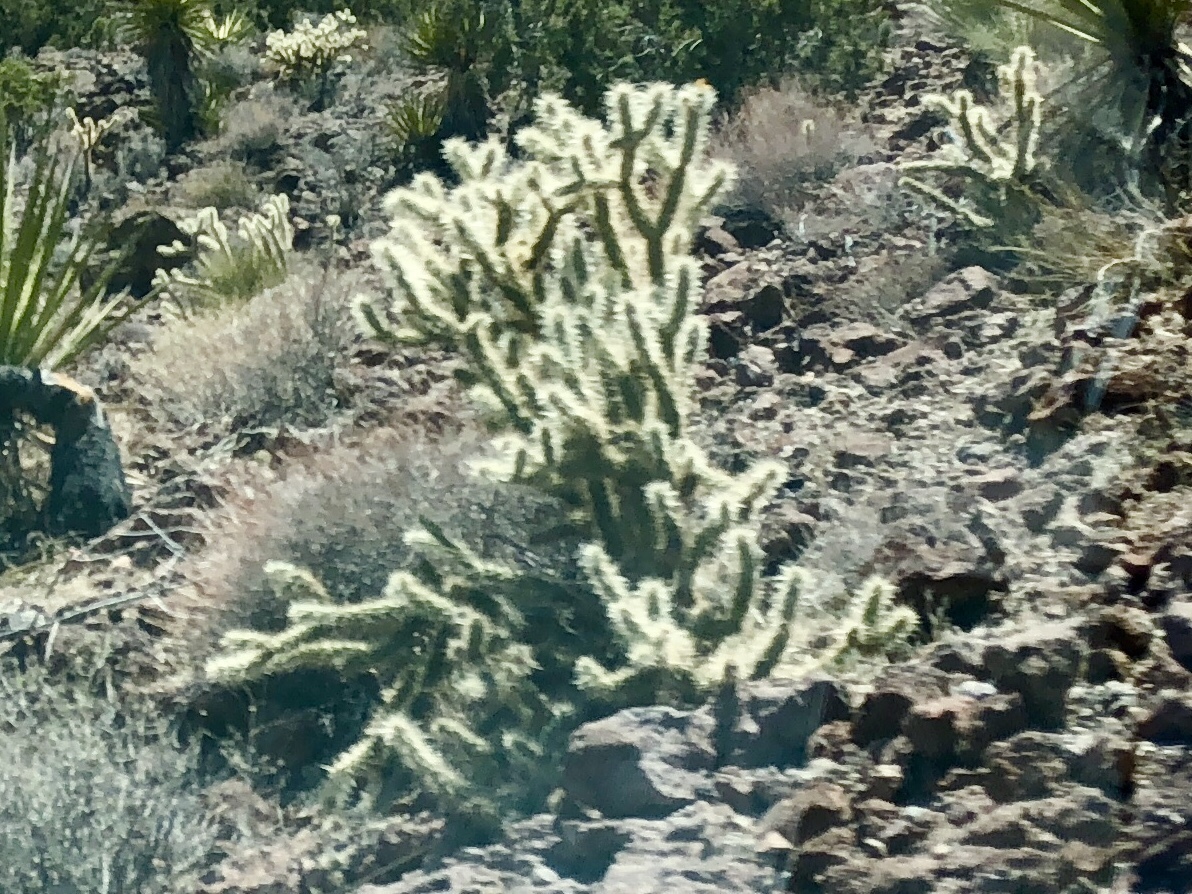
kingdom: Plantae
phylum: Tracheophyta
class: Magnoliopsida
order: Caryophyllales
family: Cactaceae
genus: Cylindropuntia
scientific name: Cylindropuntia acanthocarpa
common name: Buckhorn cholla
